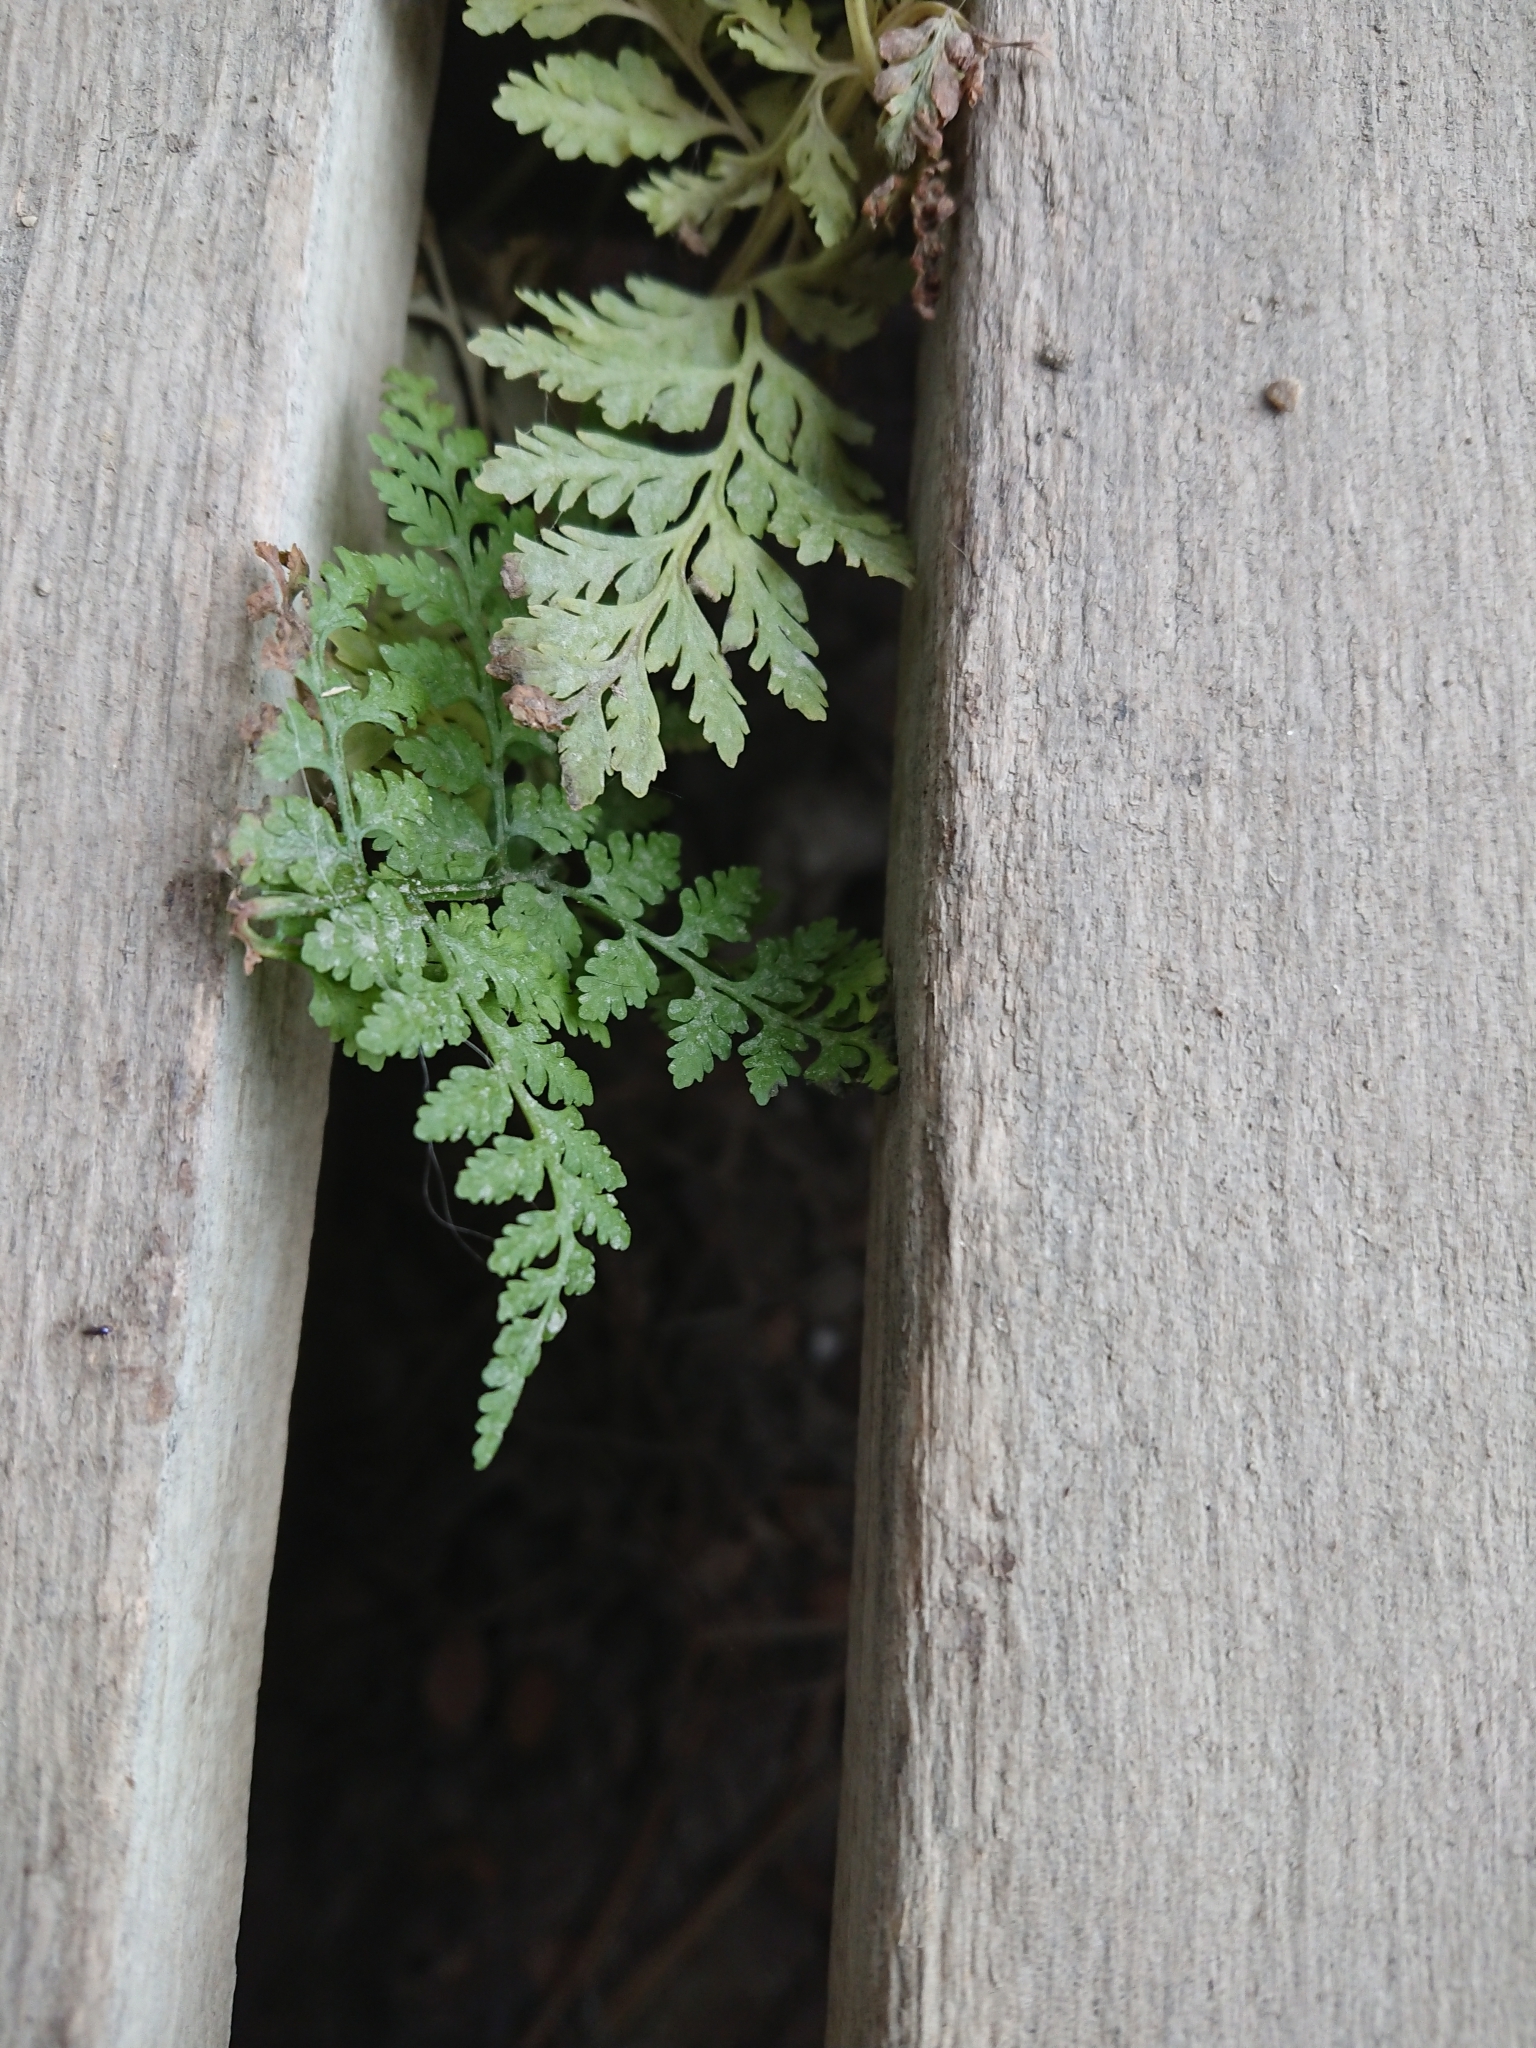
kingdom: Plantae
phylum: Tracheophyta
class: Polypodiopsida
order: Polypodiales
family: Cystopteridaceae
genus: Cystopteris
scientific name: Cystopteris fragilis
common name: Brittle bladder fern
